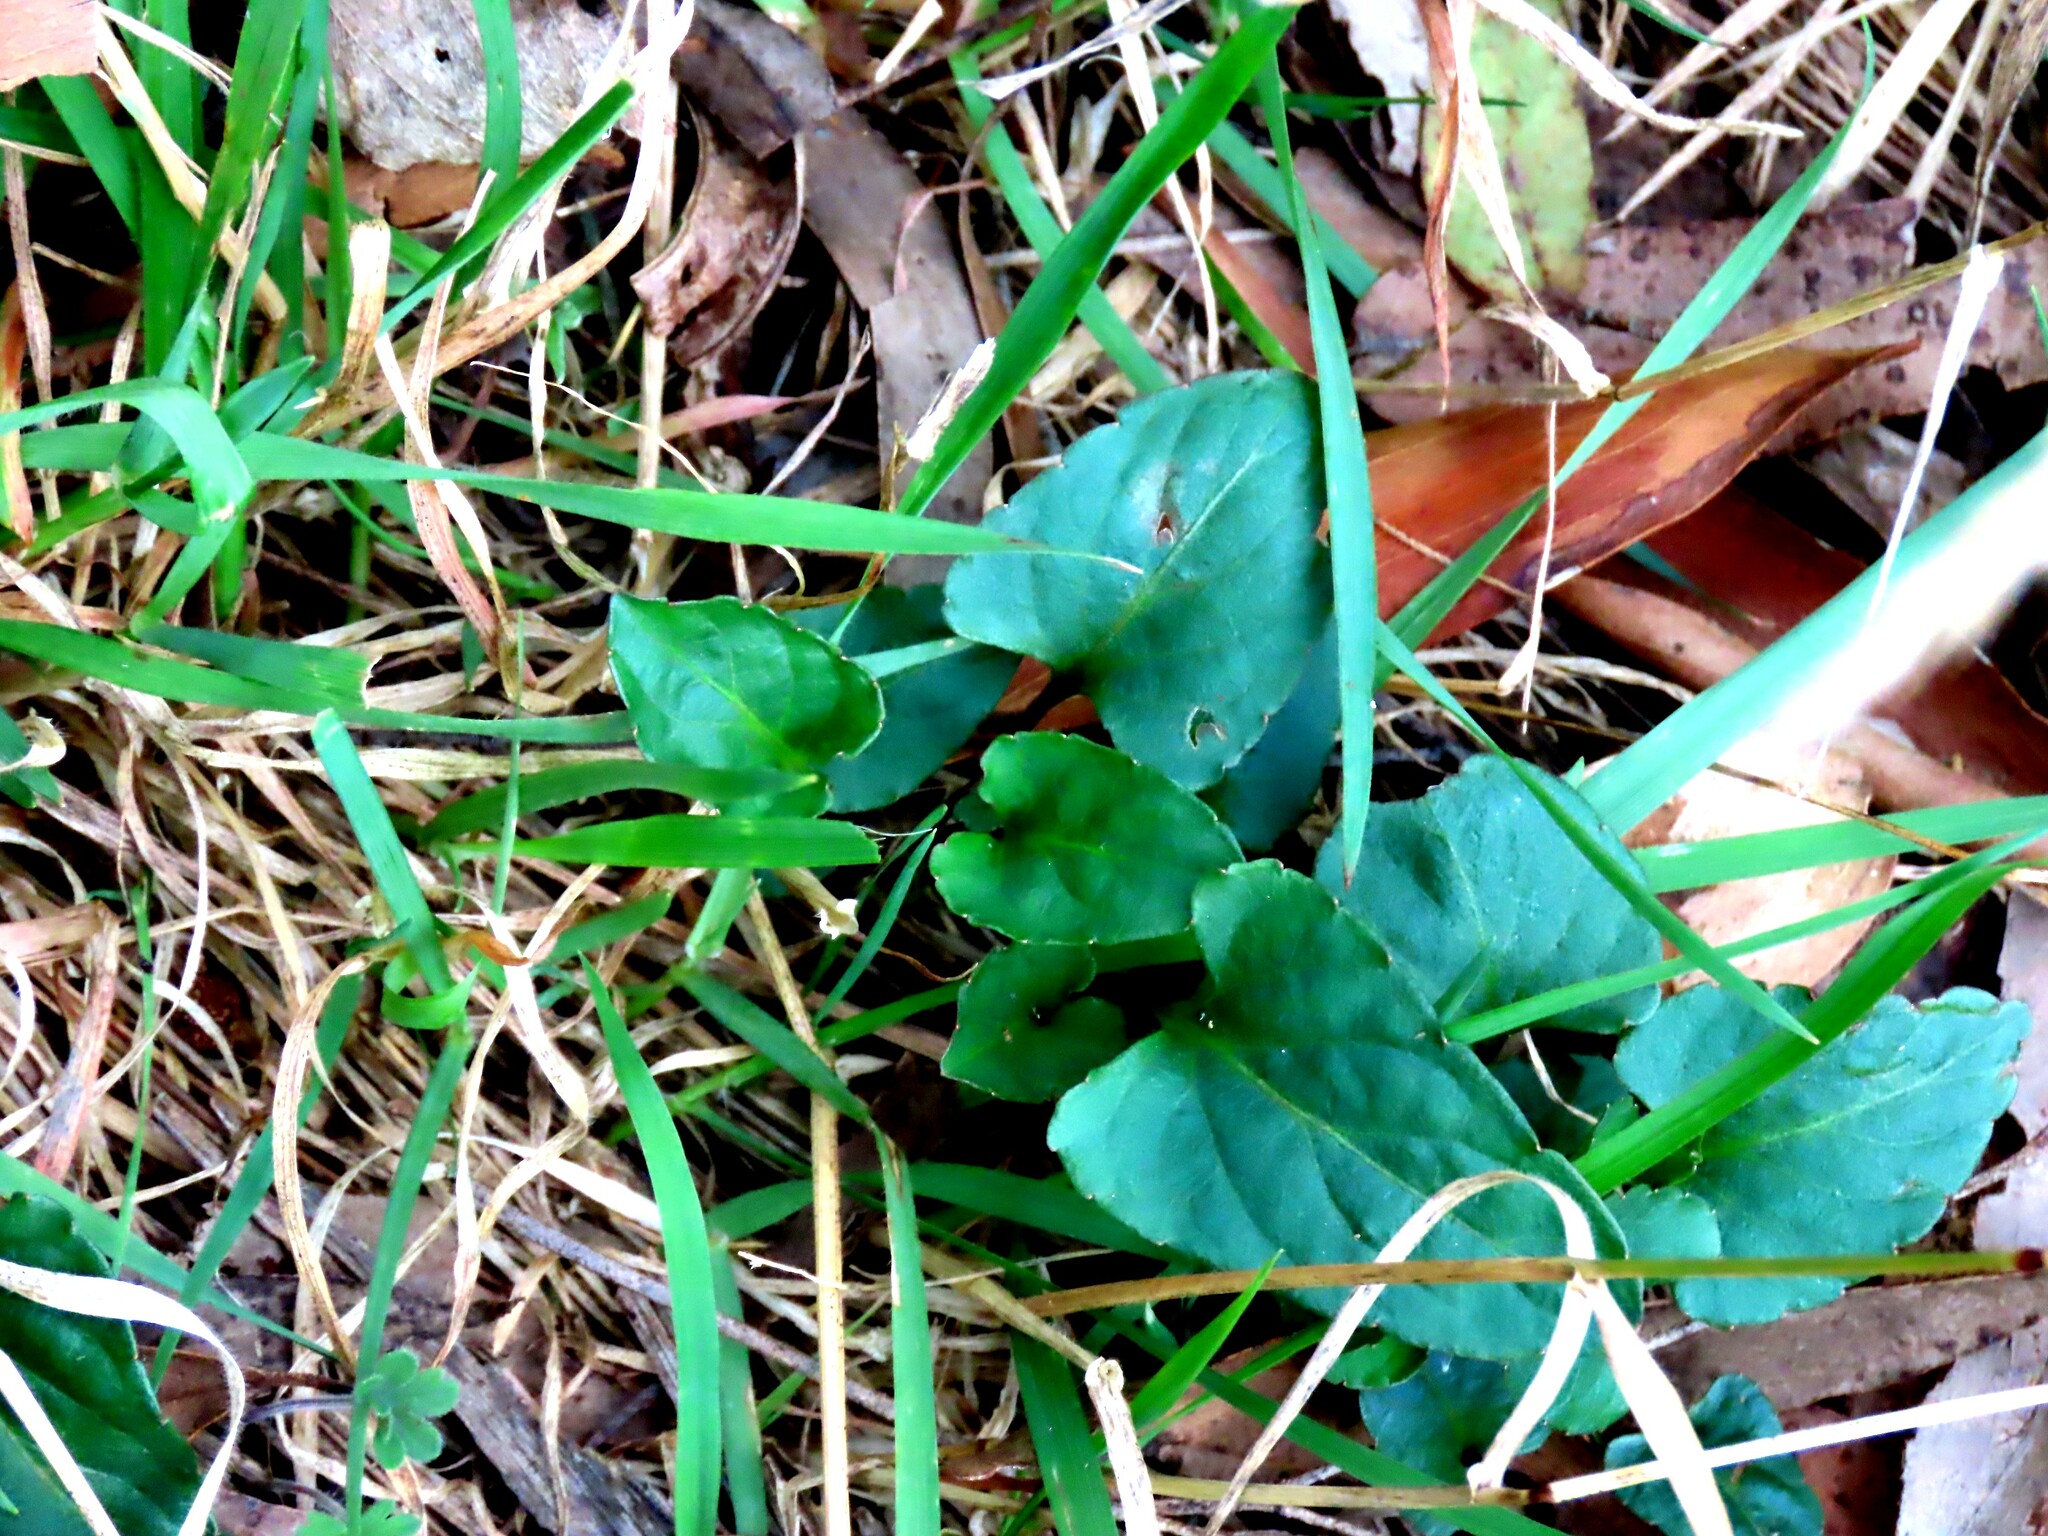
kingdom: Plantae
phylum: Tracheophyta
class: Magnoliopsida
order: Malpighiales
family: Violaceae
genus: Viola
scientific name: Viola betonicifolia
